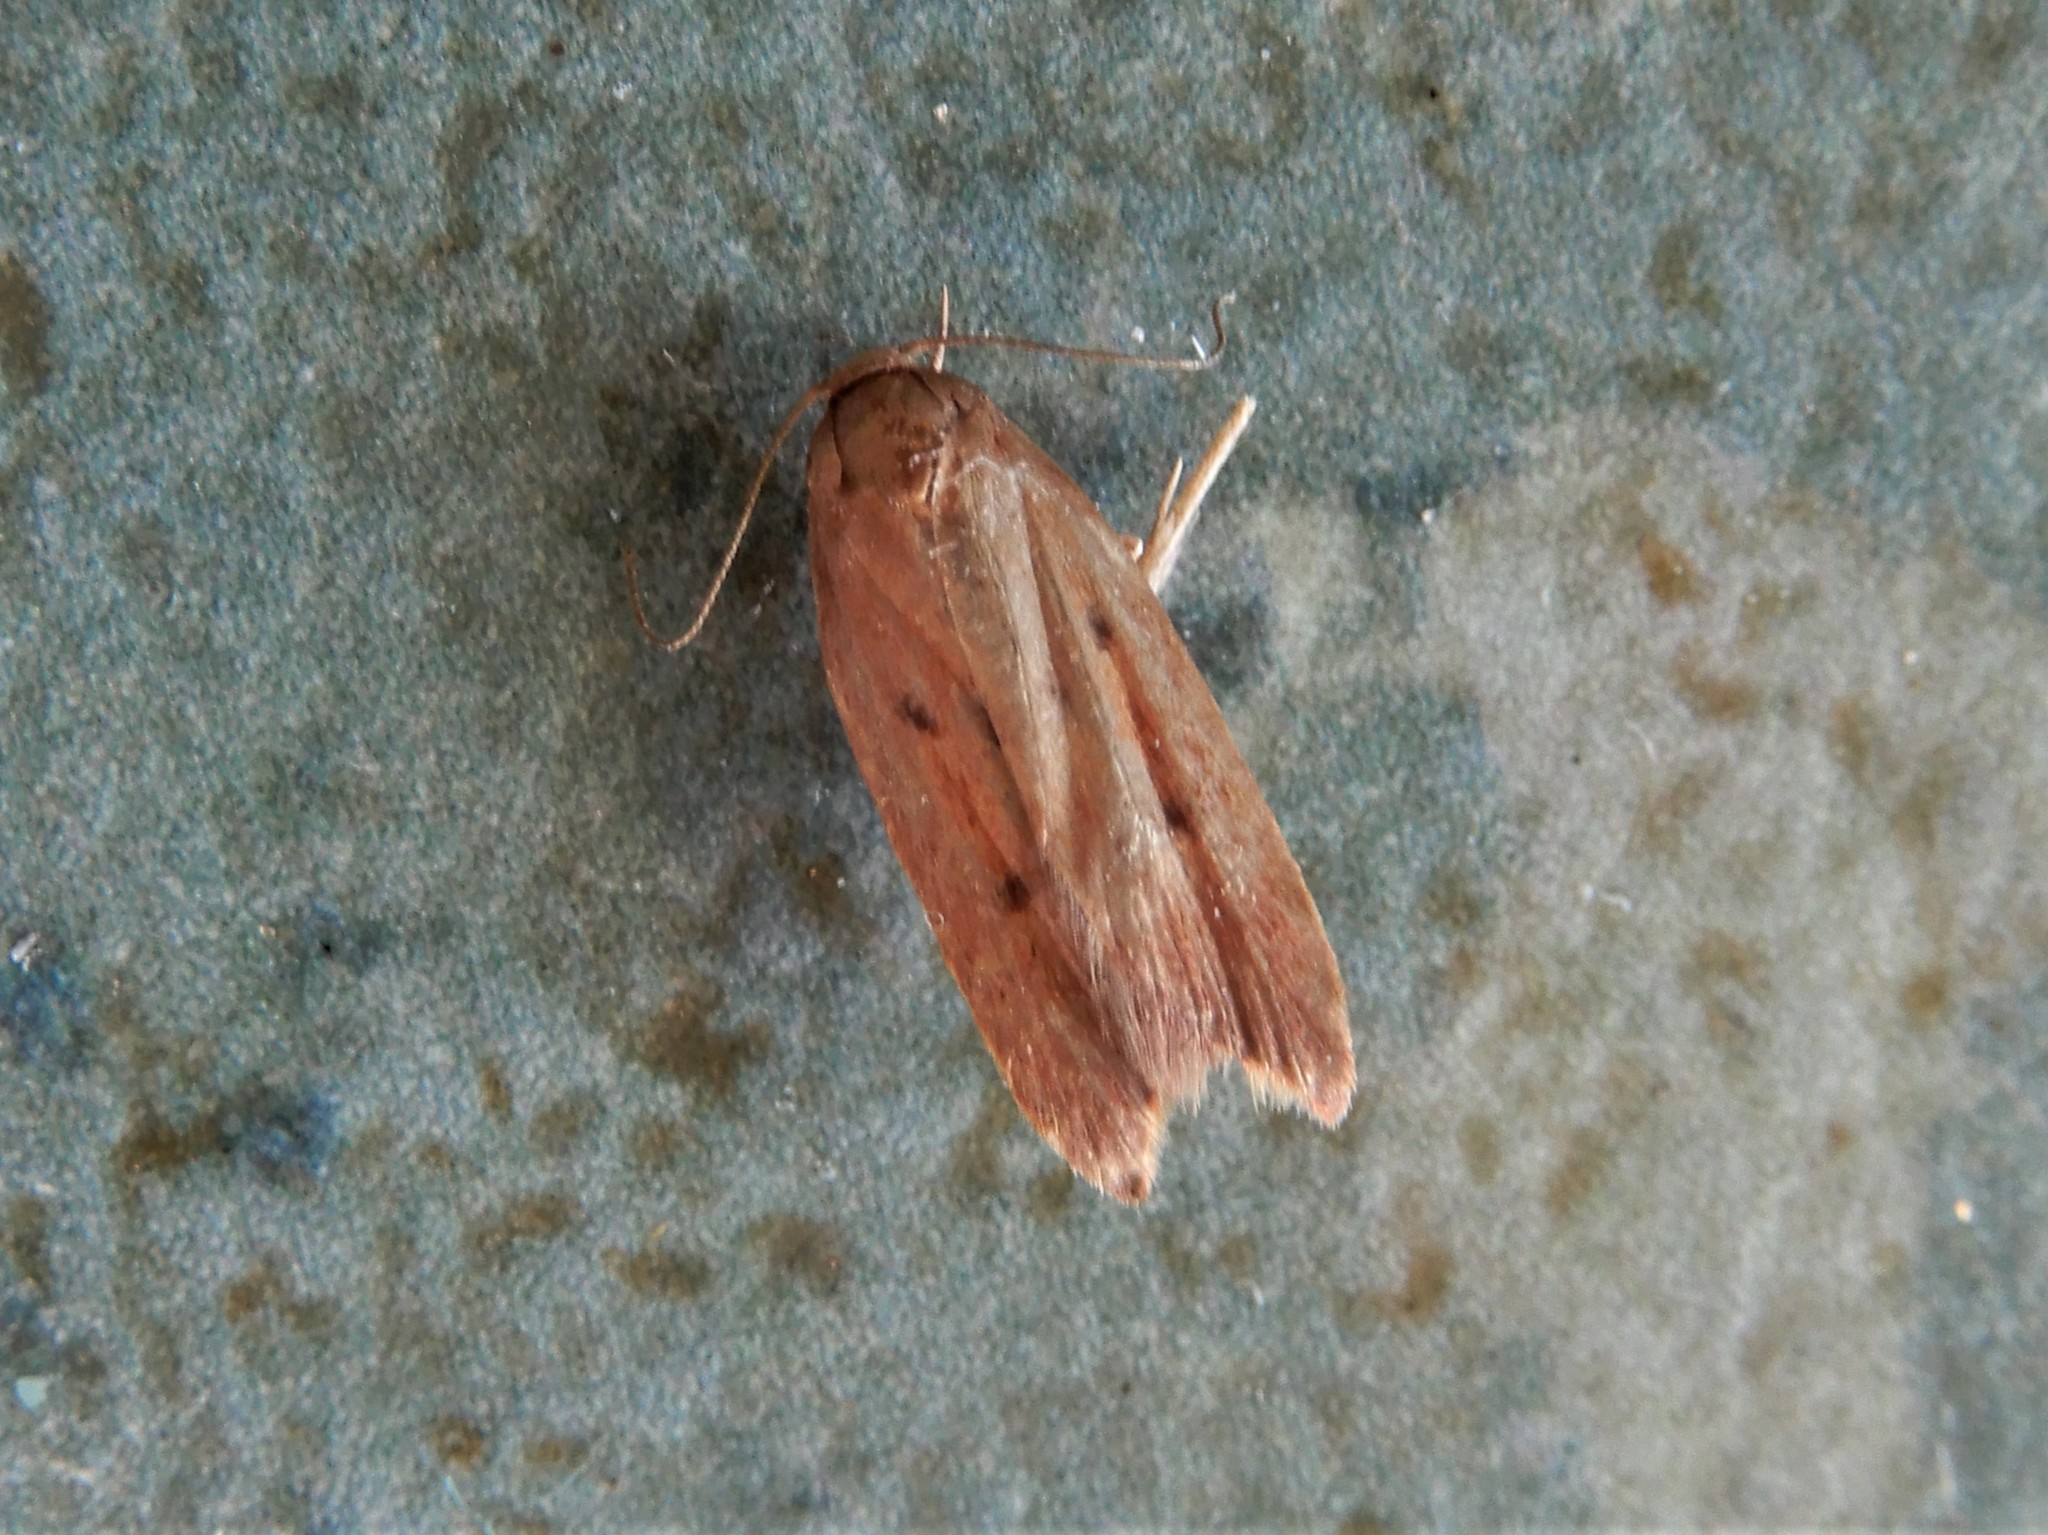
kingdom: Animalia
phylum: Arthropoda
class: Insecta
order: Lepidoptera
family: Oecophoridae
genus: Tachystola
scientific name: Tachystola acroxantha
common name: Ruddy streak
